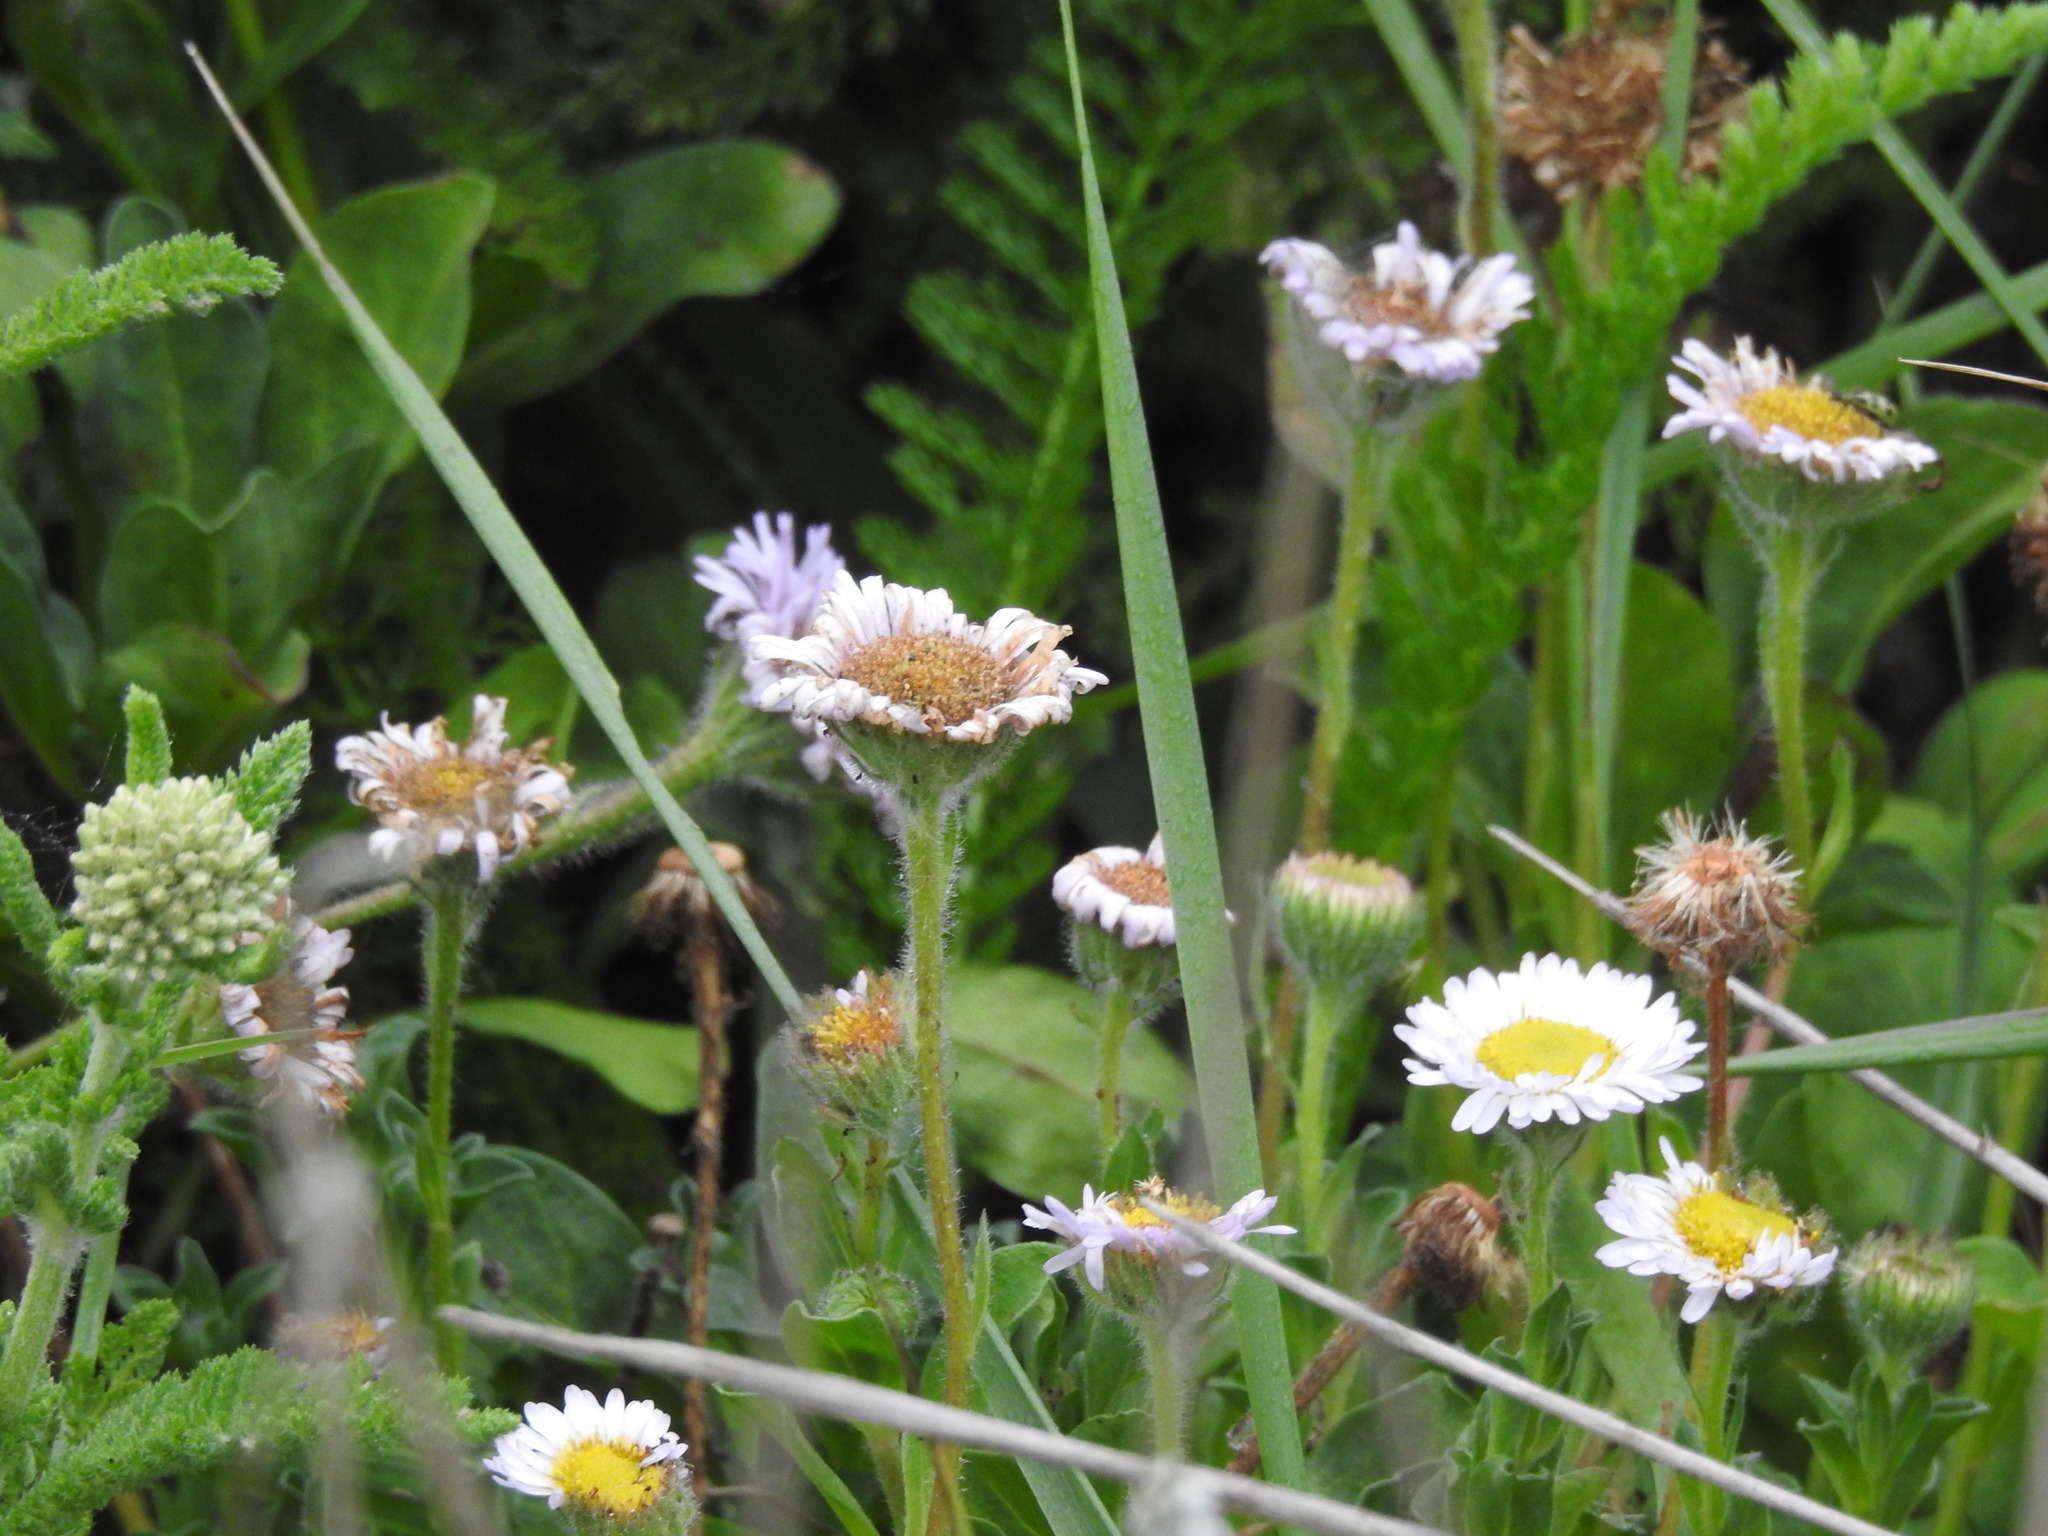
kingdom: Plantae
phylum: Tracheophyta
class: Magnoliopsida
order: Asterales
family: Asteraceae
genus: Erigeron
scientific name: Erigeron glaucus
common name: Seaside daisy
